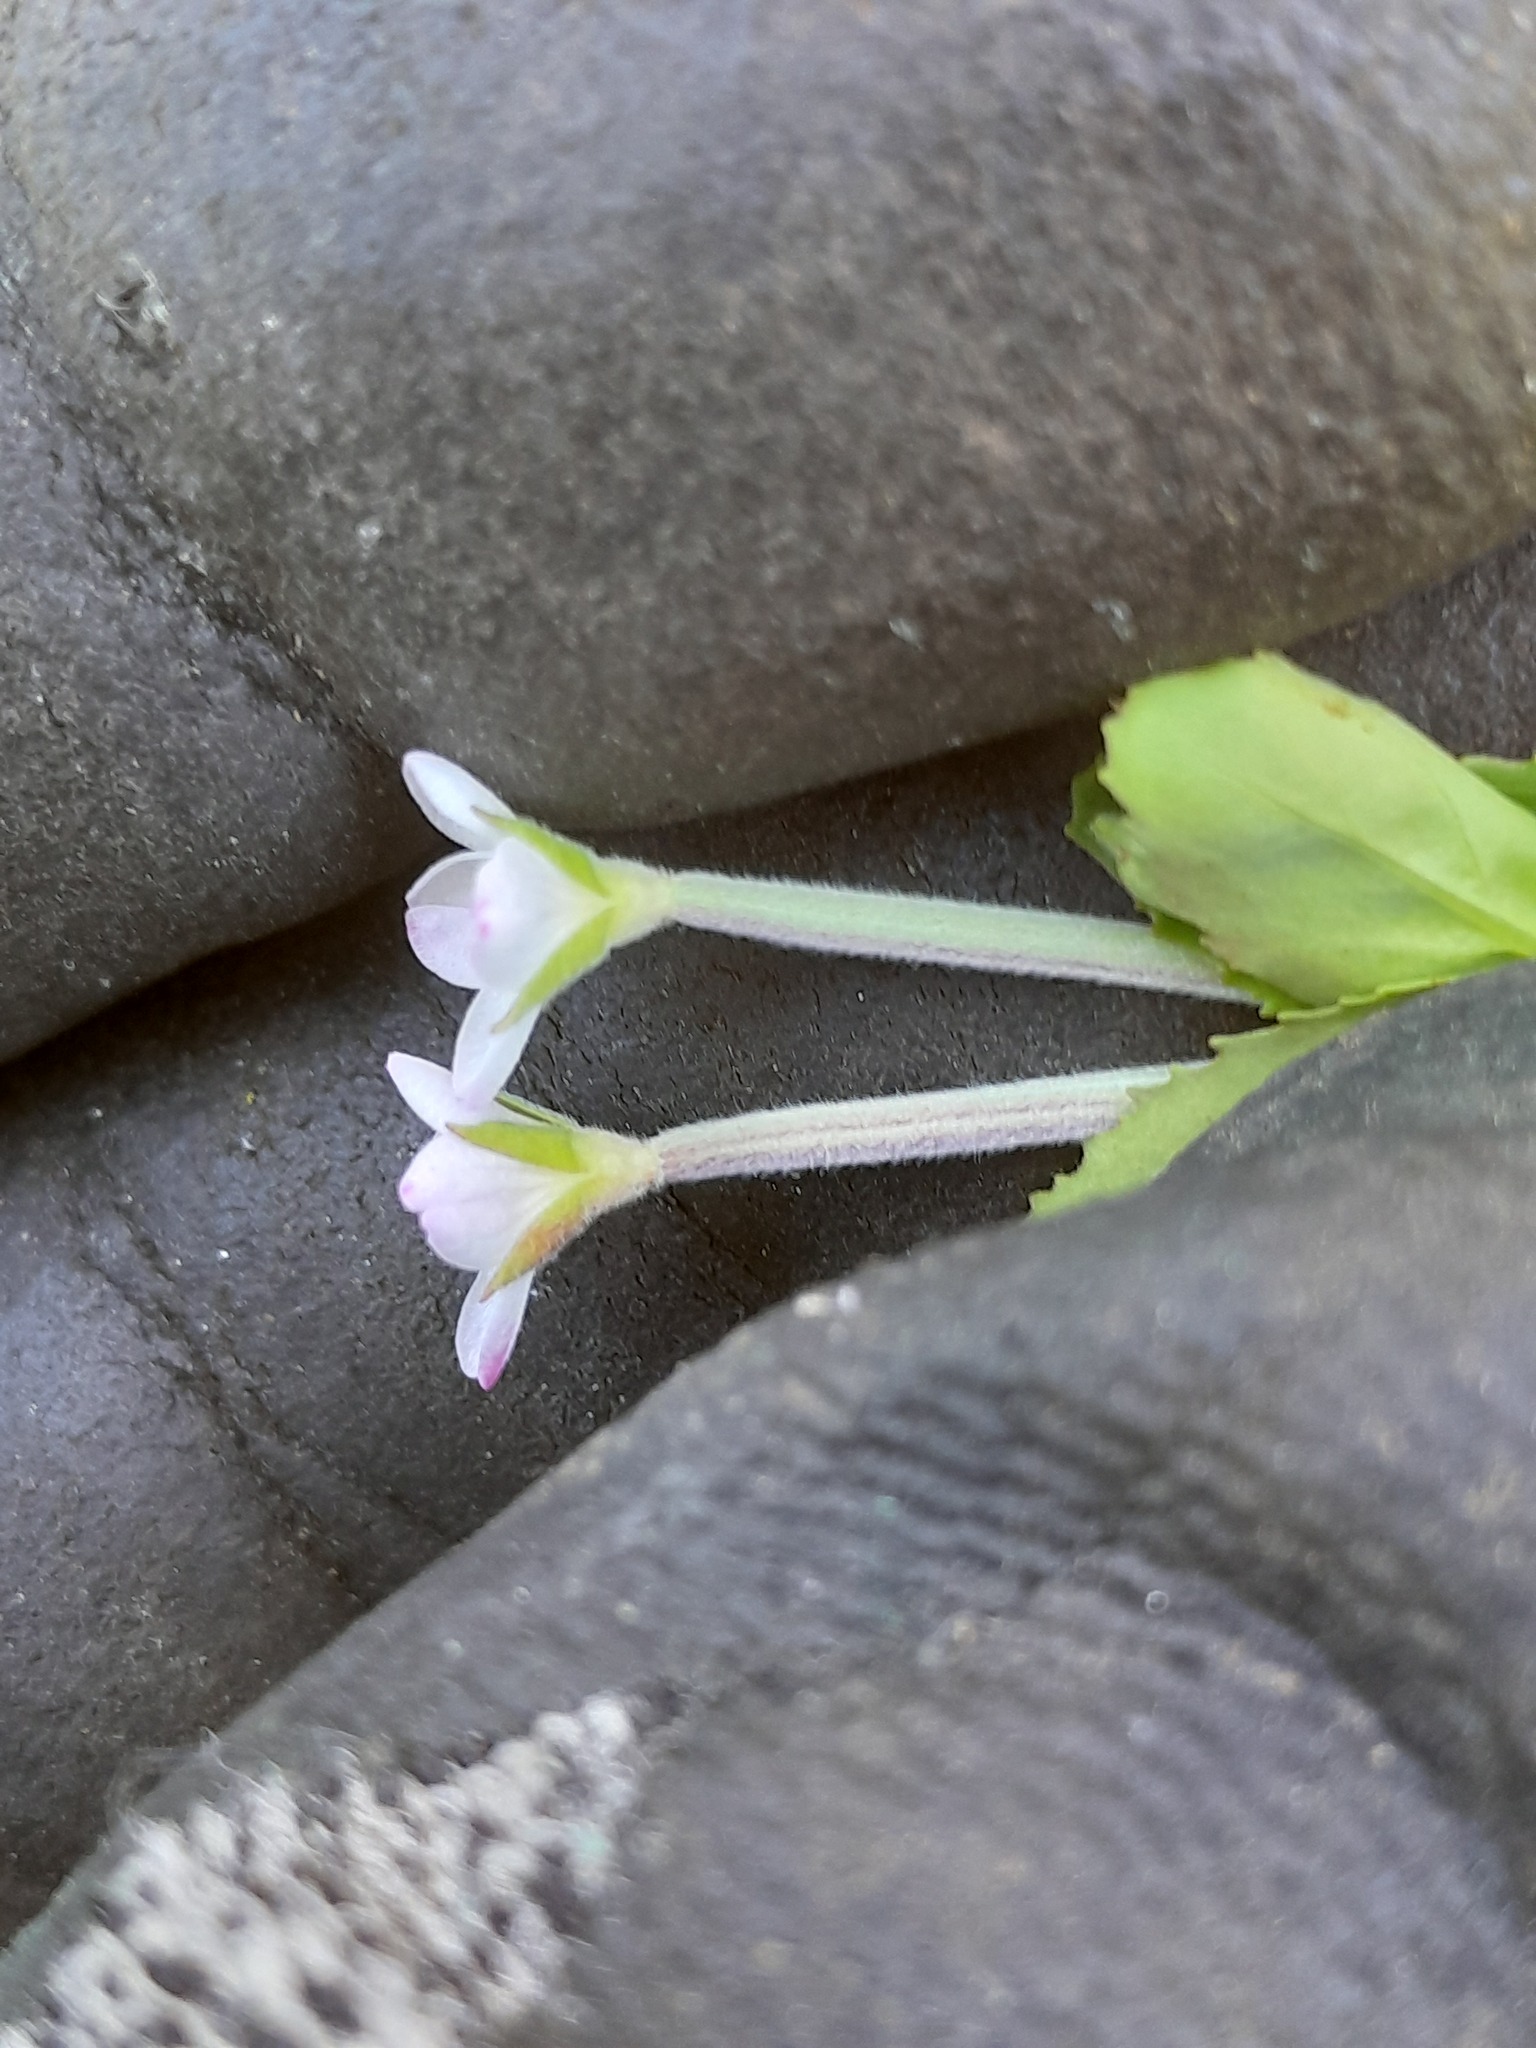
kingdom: Plantae
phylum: Tracheophyta
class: Magnoliopsida
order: Myrtales
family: Onagraceae
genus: Epilobium
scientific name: Epilobium billardierianum
